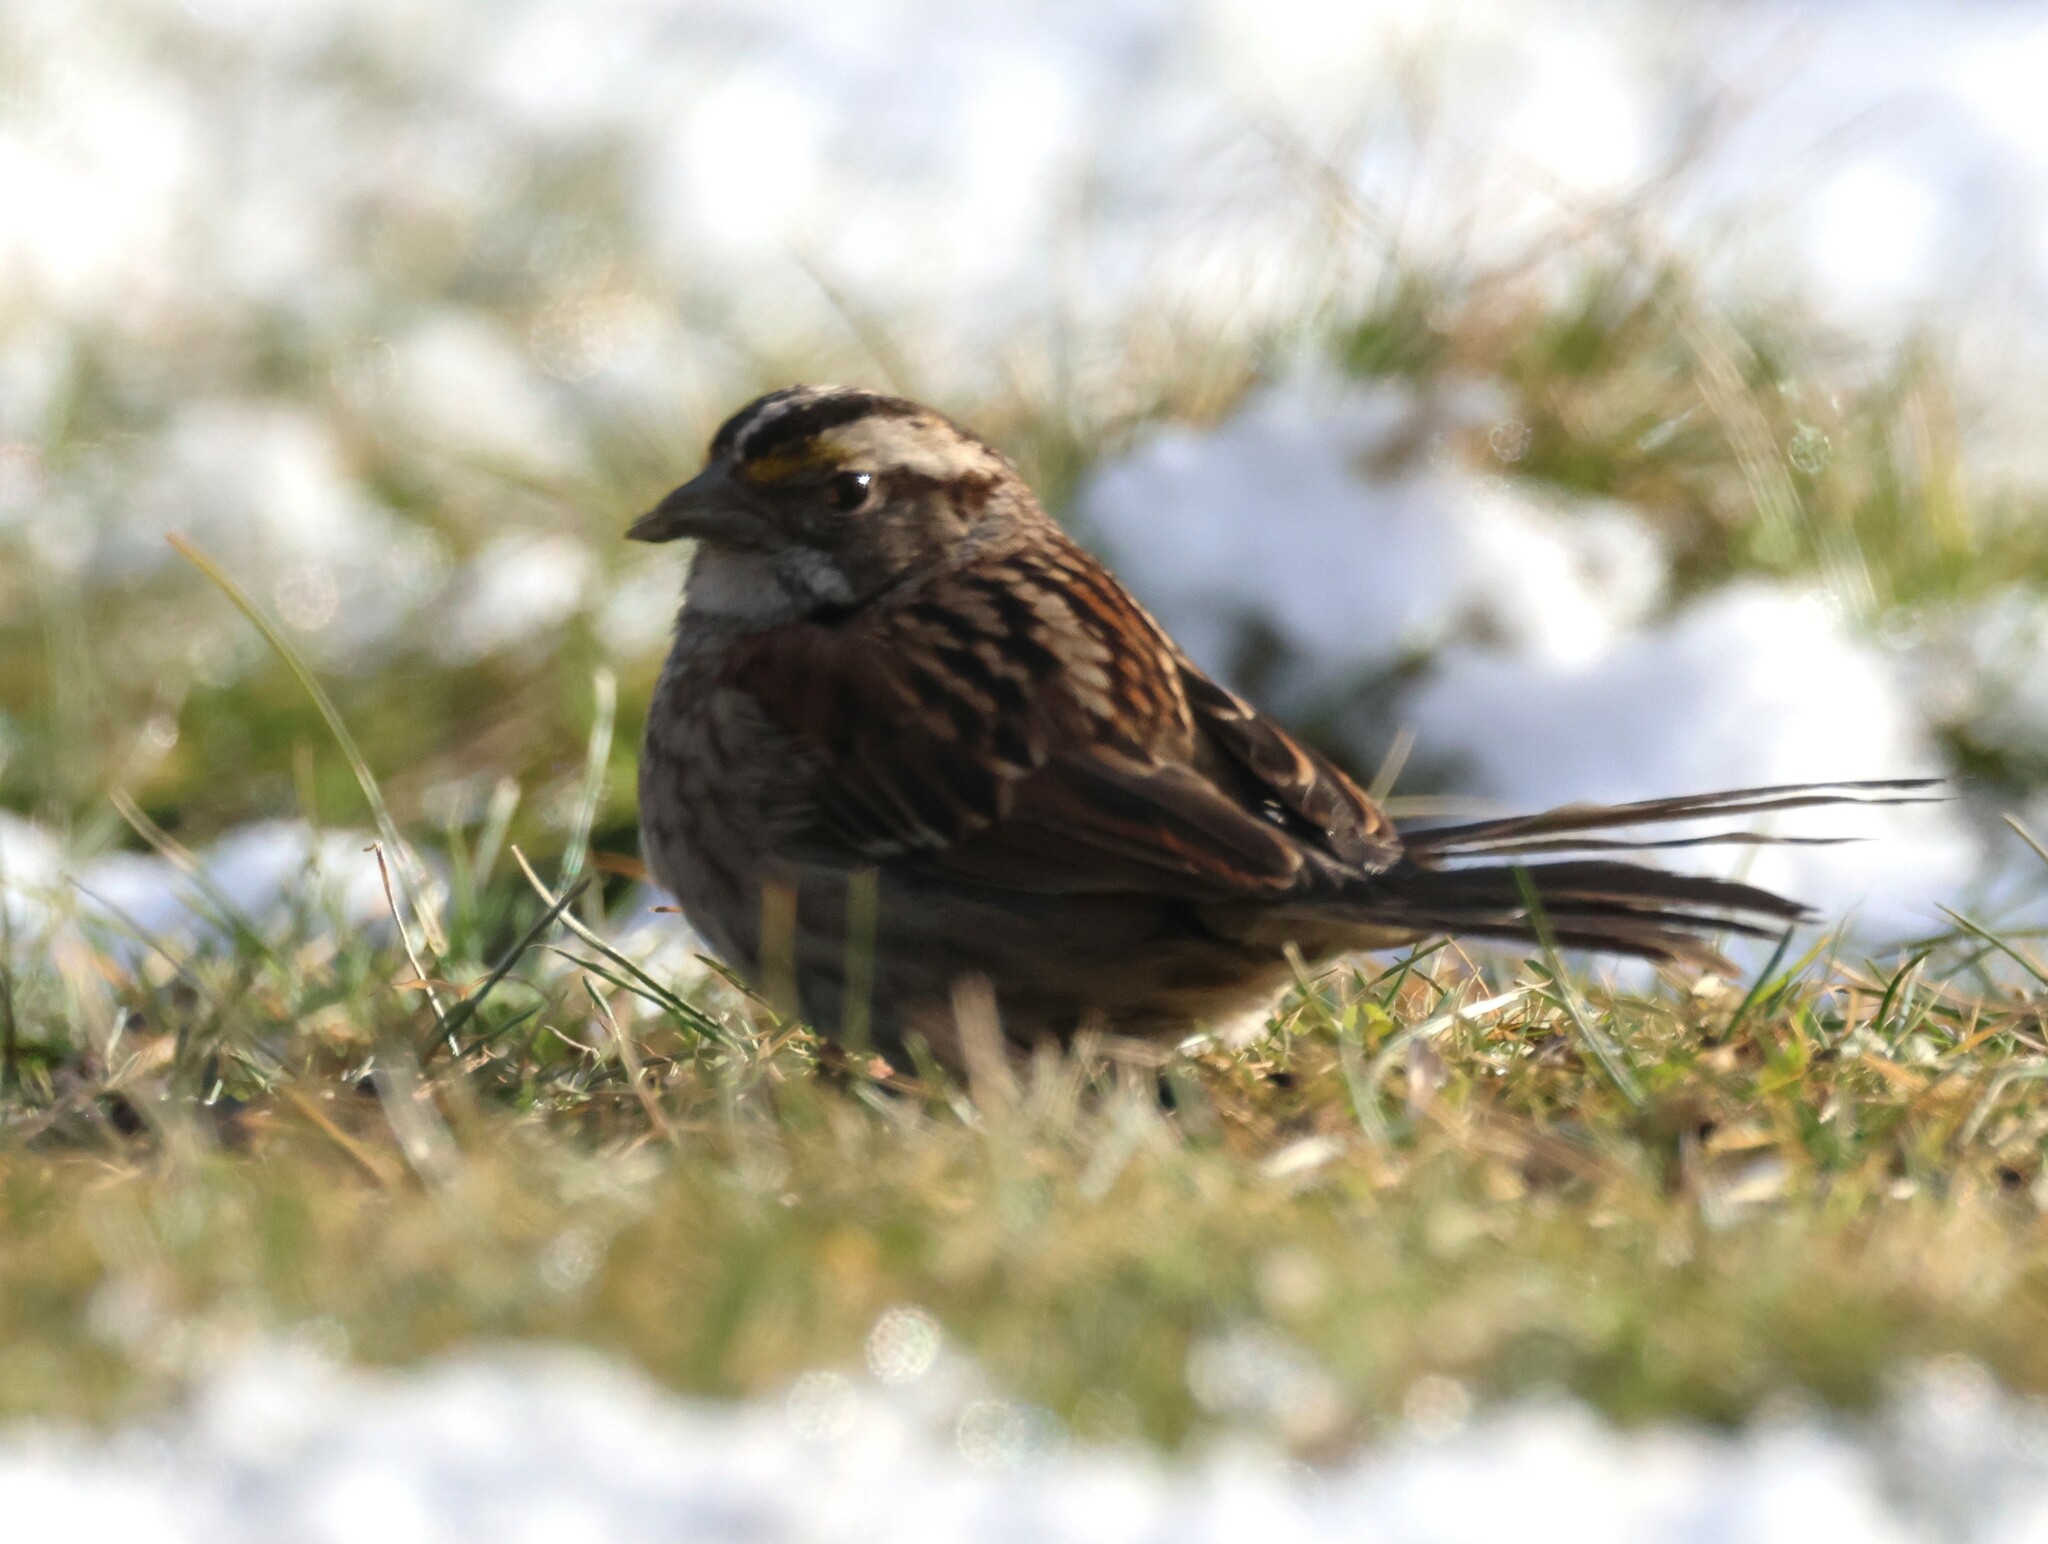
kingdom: Animalia
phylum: Chordata
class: Aves
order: Passeriformes
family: Passerellidae
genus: Zonotrichia
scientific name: Zonotrichia albicollis
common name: White-throated sparrow
